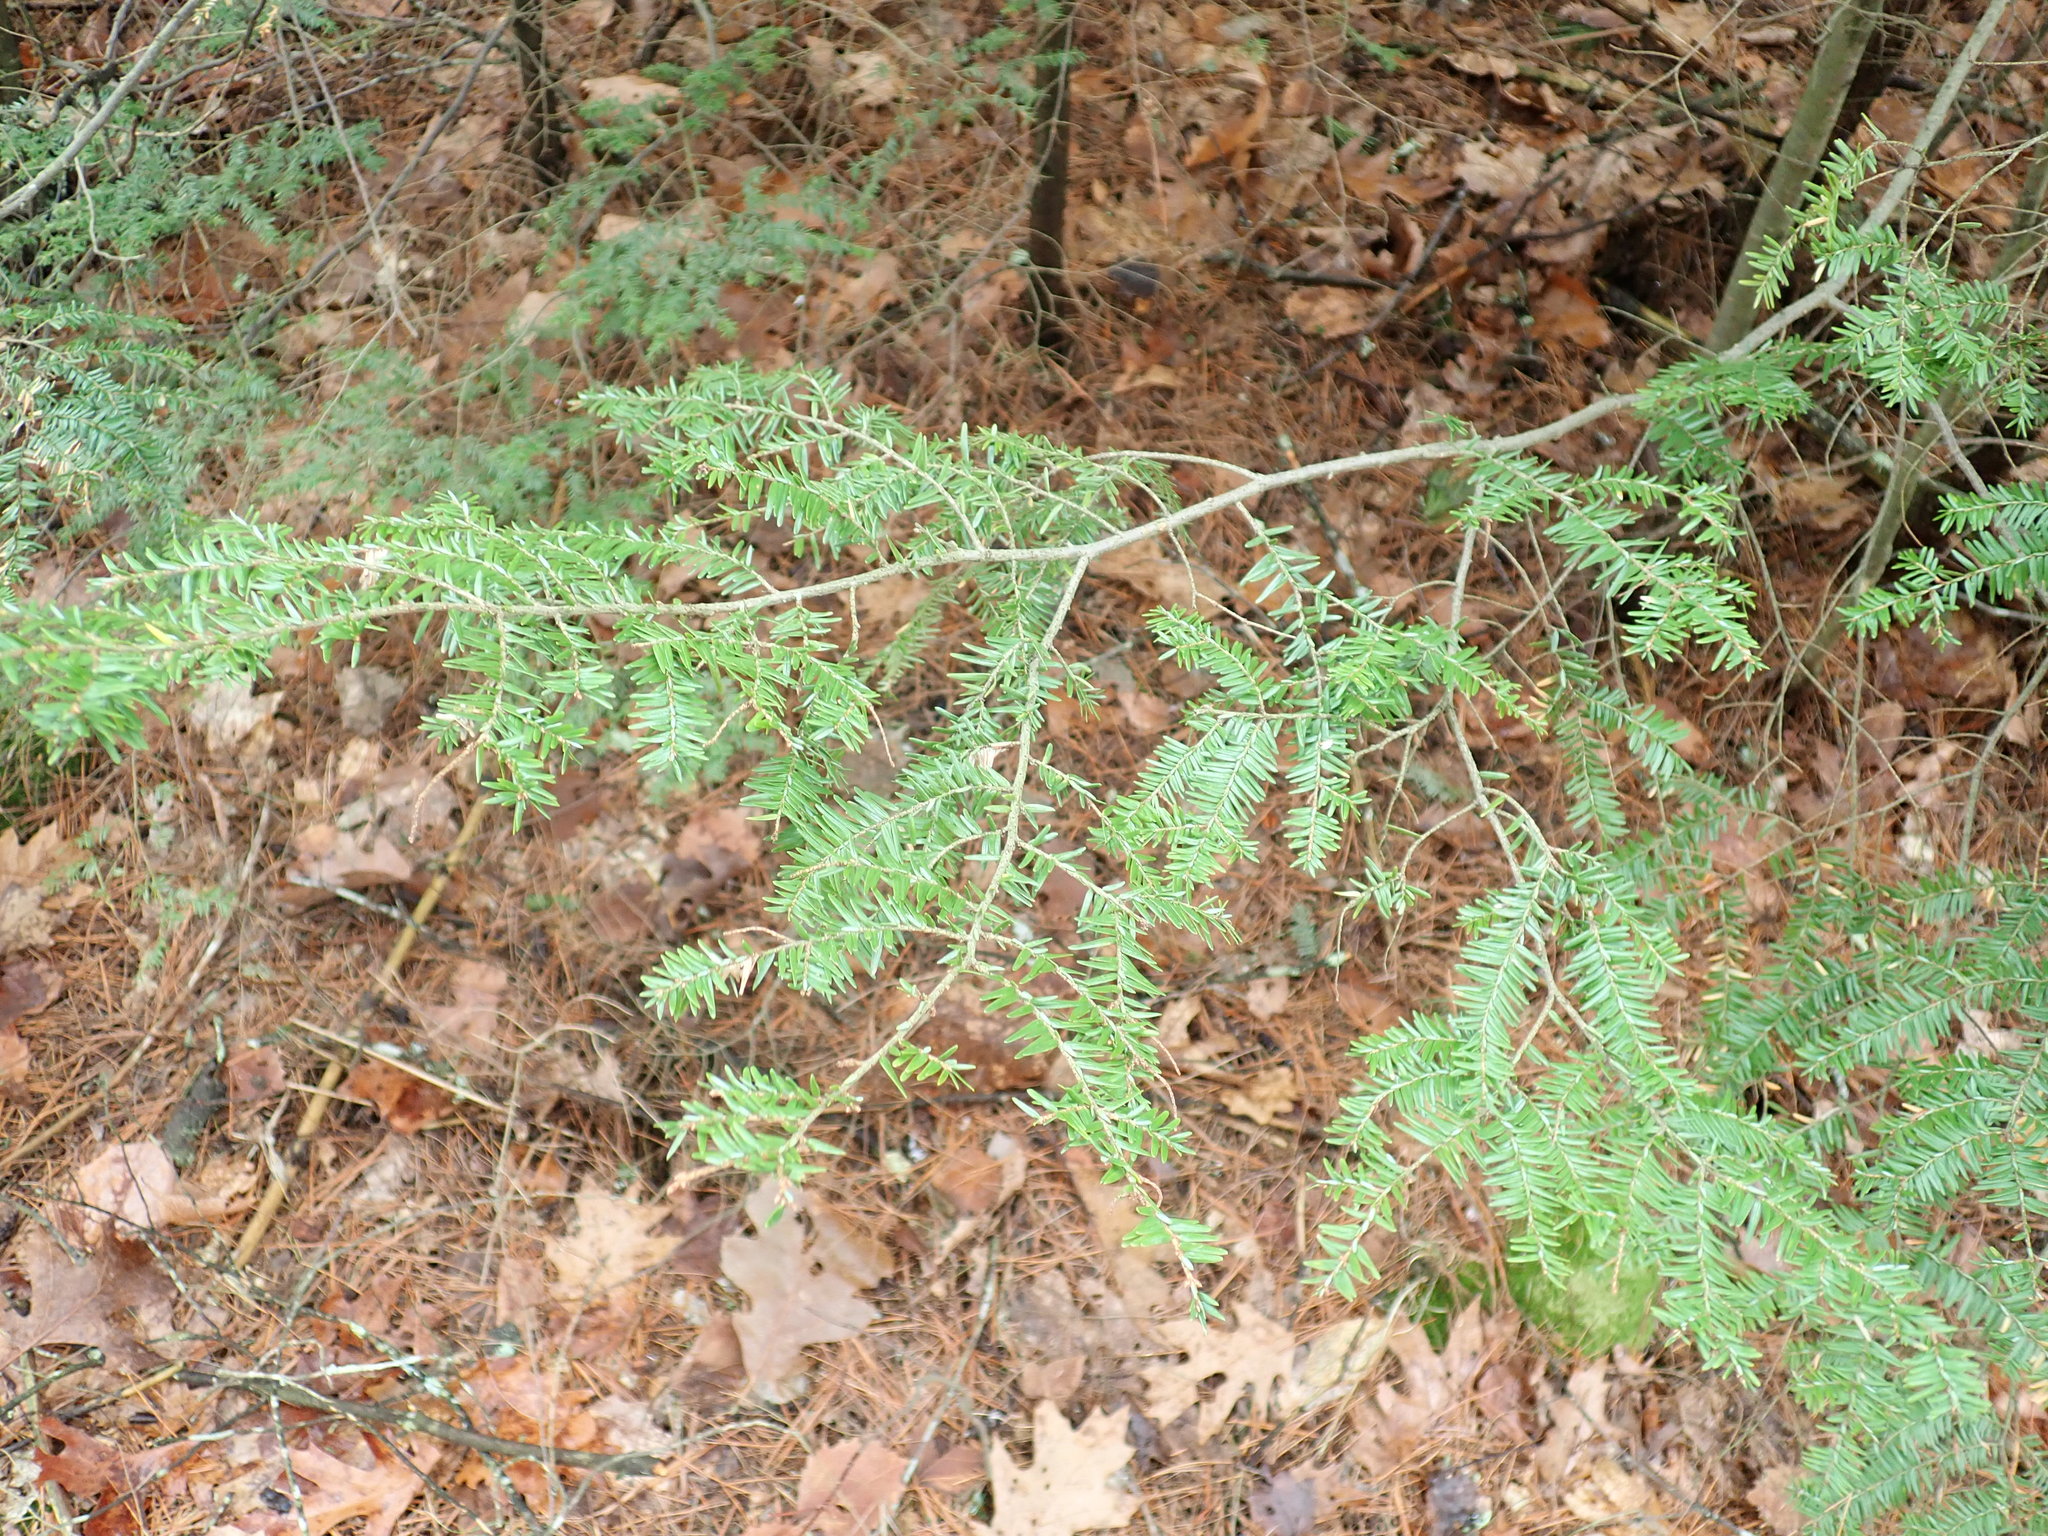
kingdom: Plantae
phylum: Tracheophyta
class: Pinopsida
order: Pinales
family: Pinaceae
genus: Tsuga
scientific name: Tsuga canadensis
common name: Eastern hemlock
